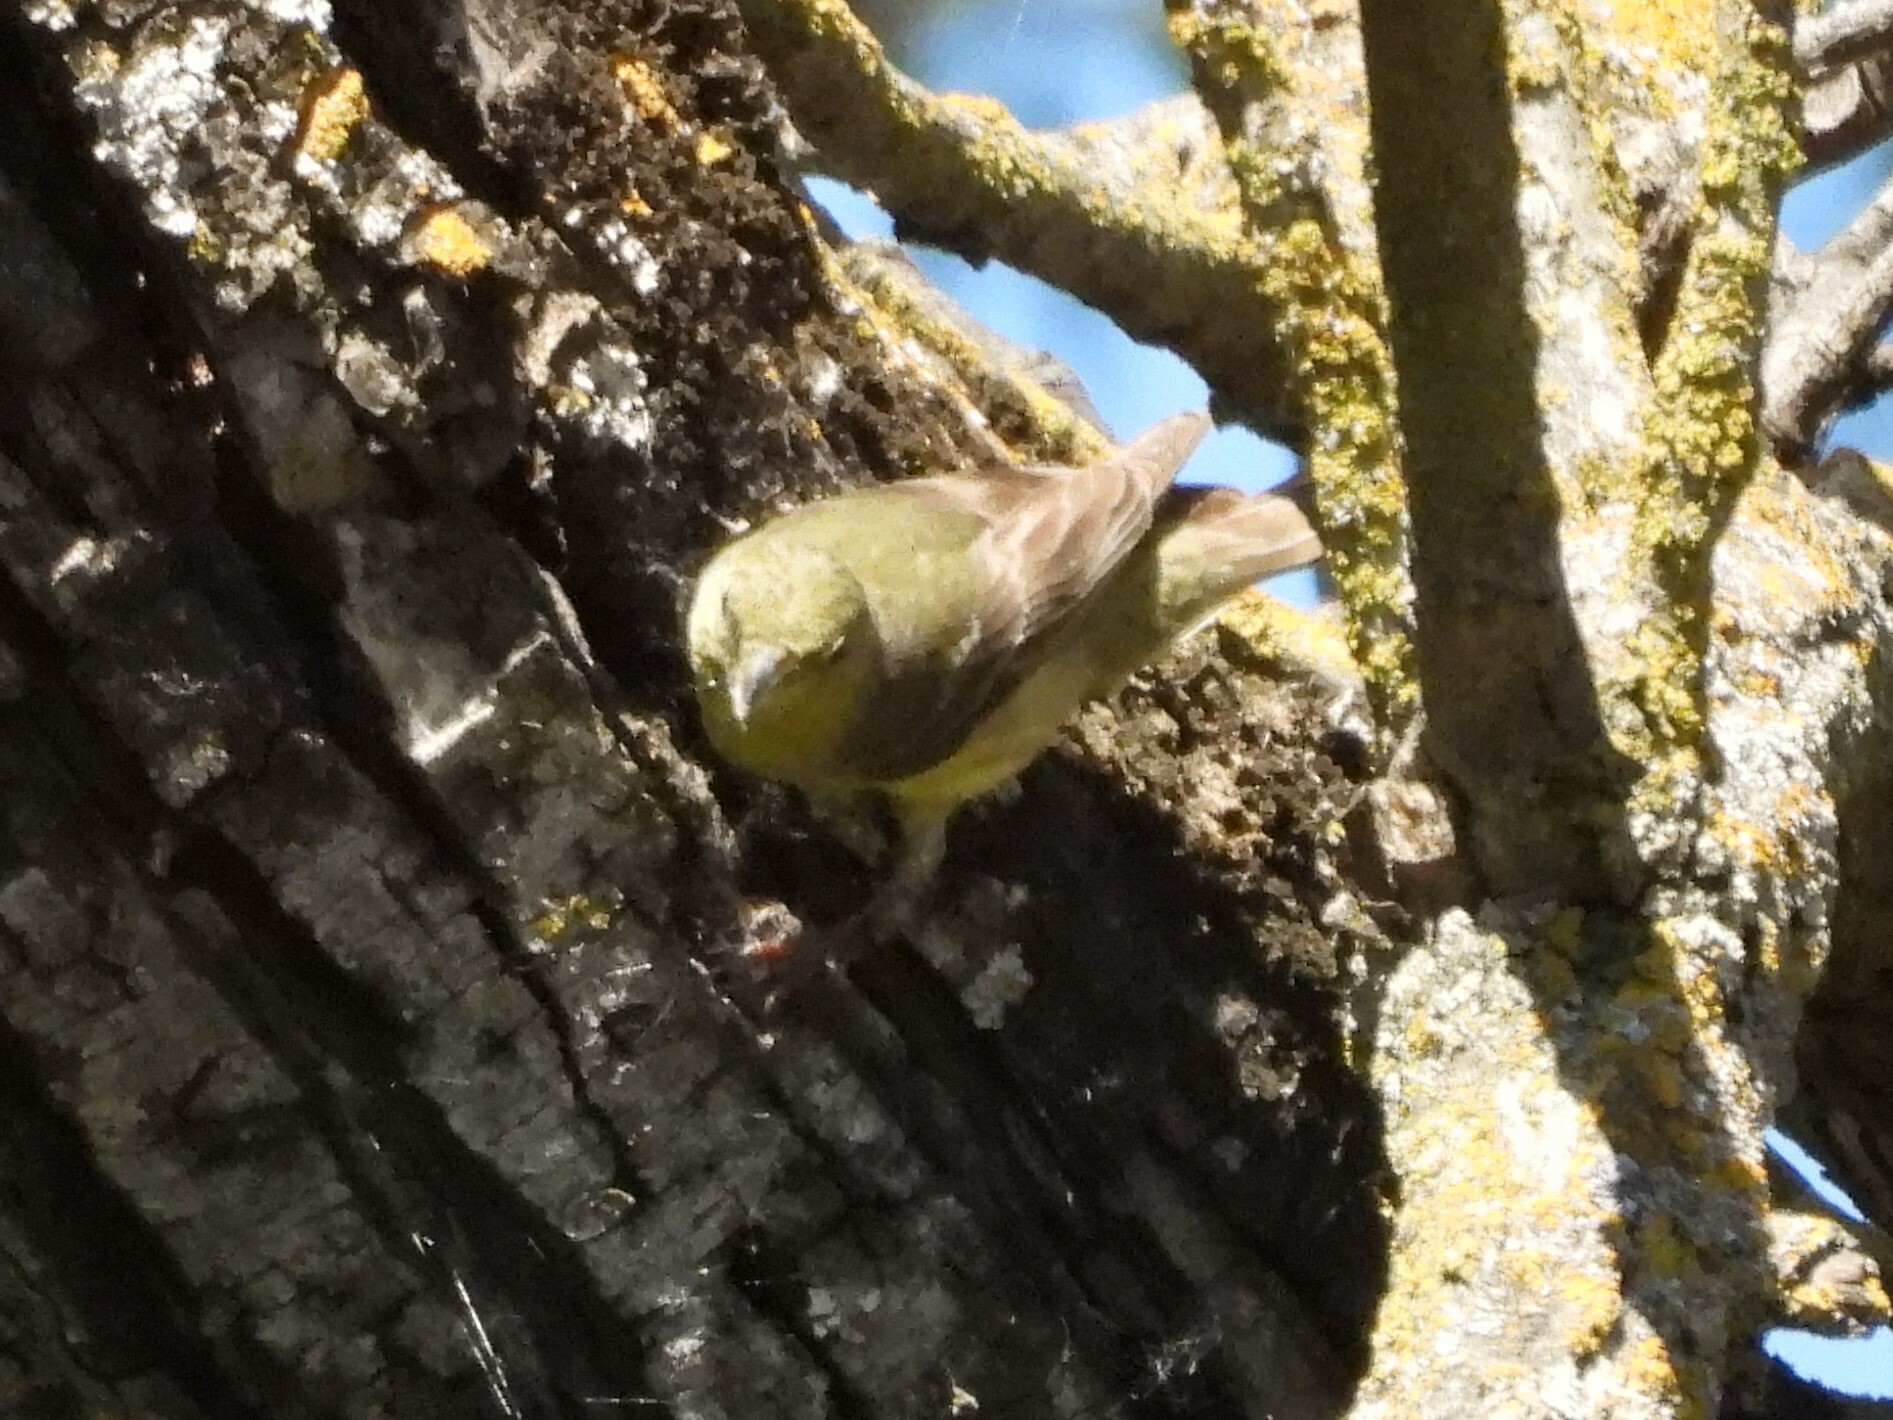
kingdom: Animalia
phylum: Chordata
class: Aves
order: Passeriformes
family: Fringillidae
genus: Spinus
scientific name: Spinus psaltria
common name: Lesser goldfinch
